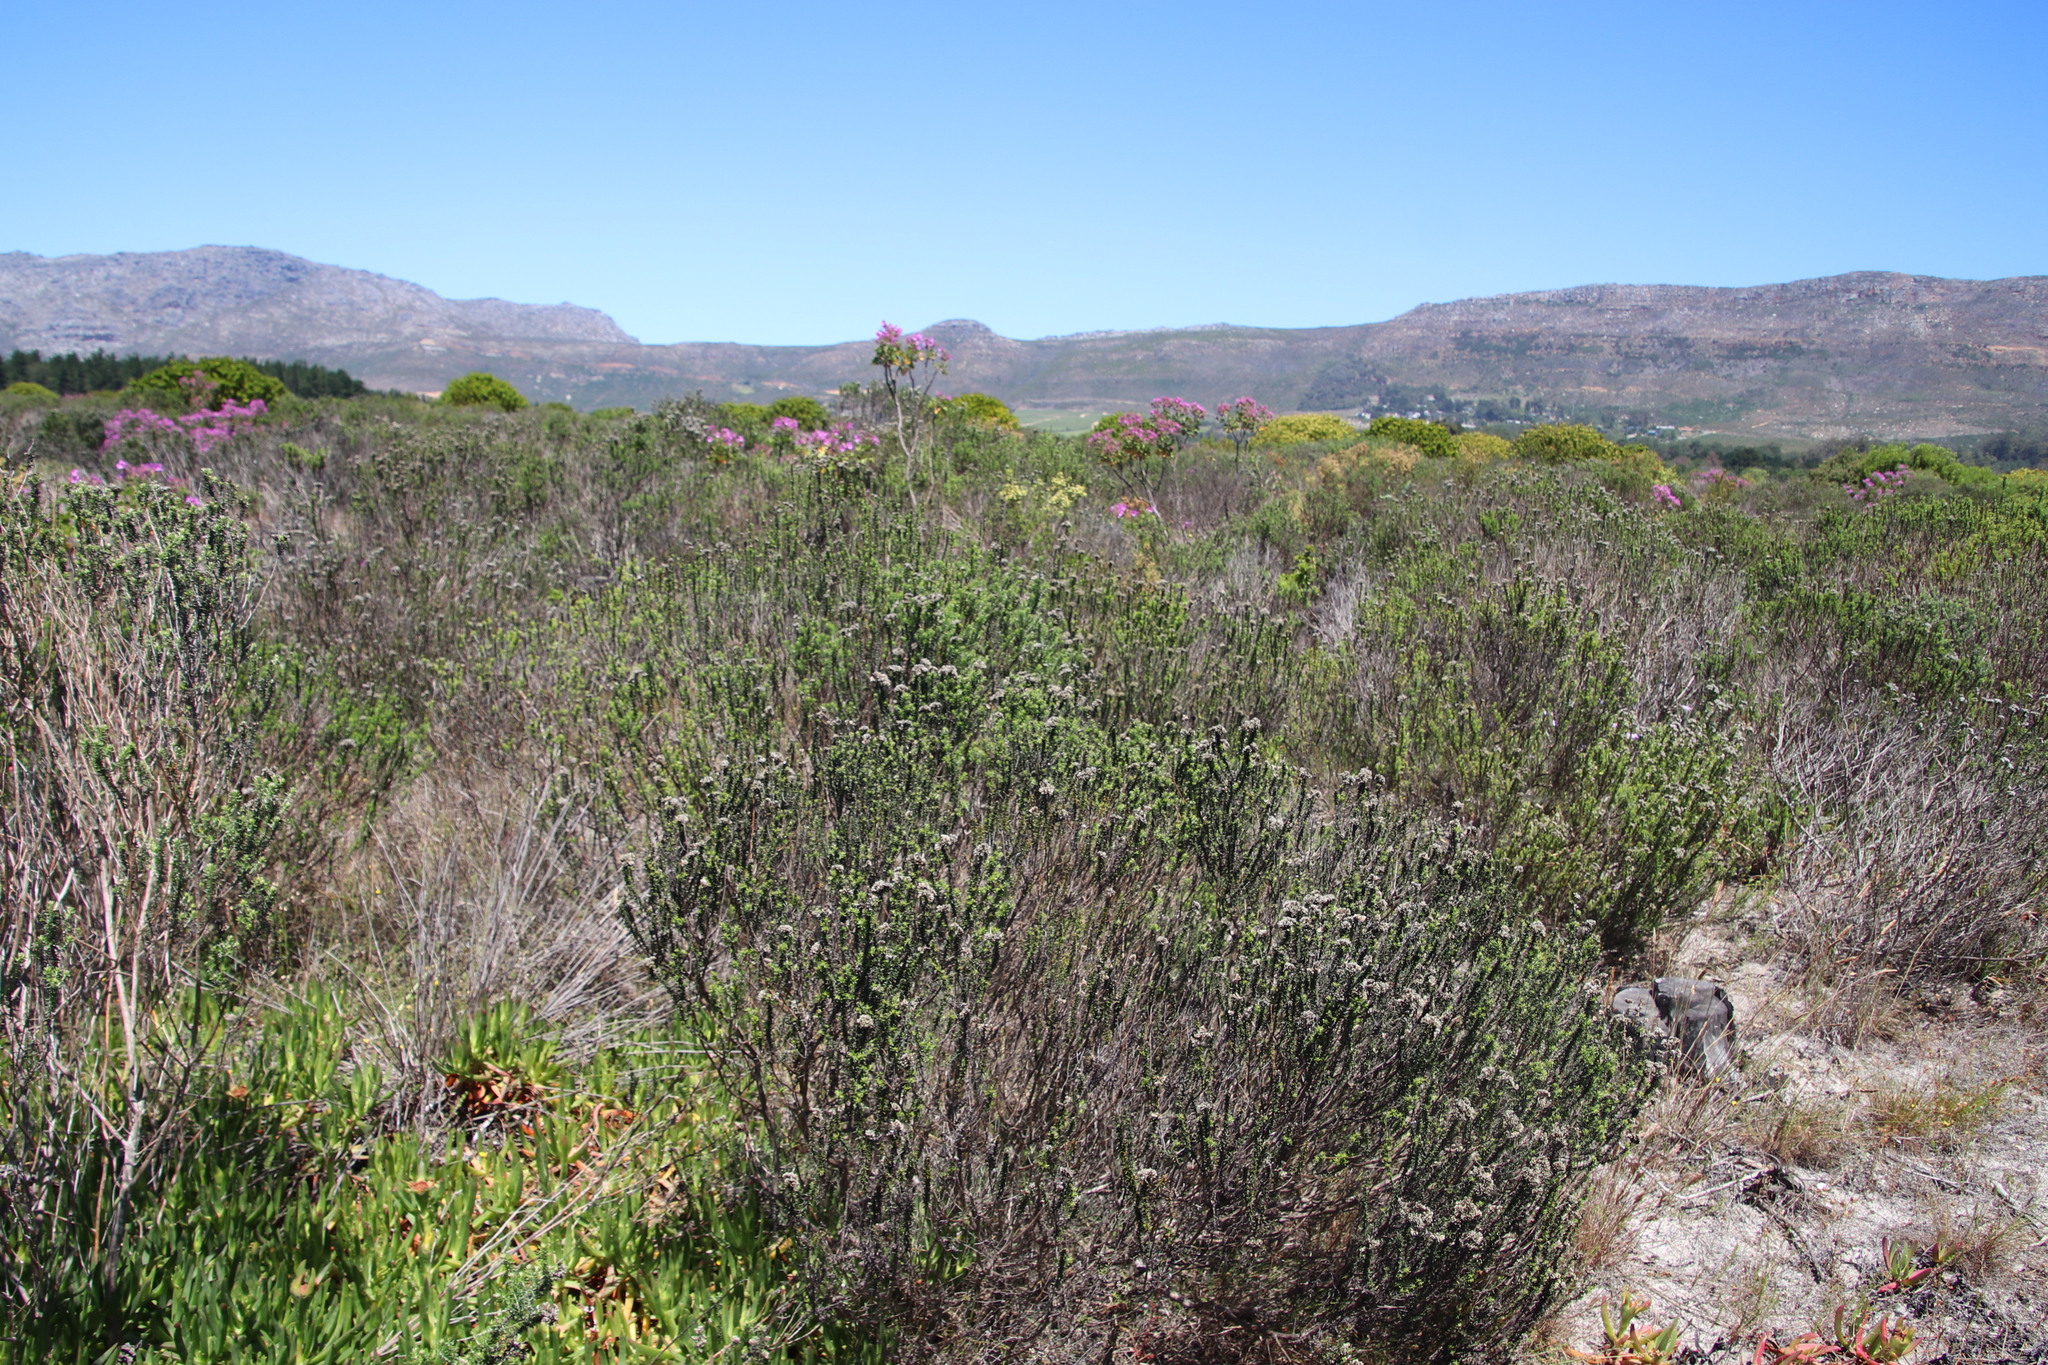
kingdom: Plantae
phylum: Tracheophyta
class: Magnoliopsida
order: Asterales
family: Asteraceae
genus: Metalasia
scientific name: Metalasia densa
